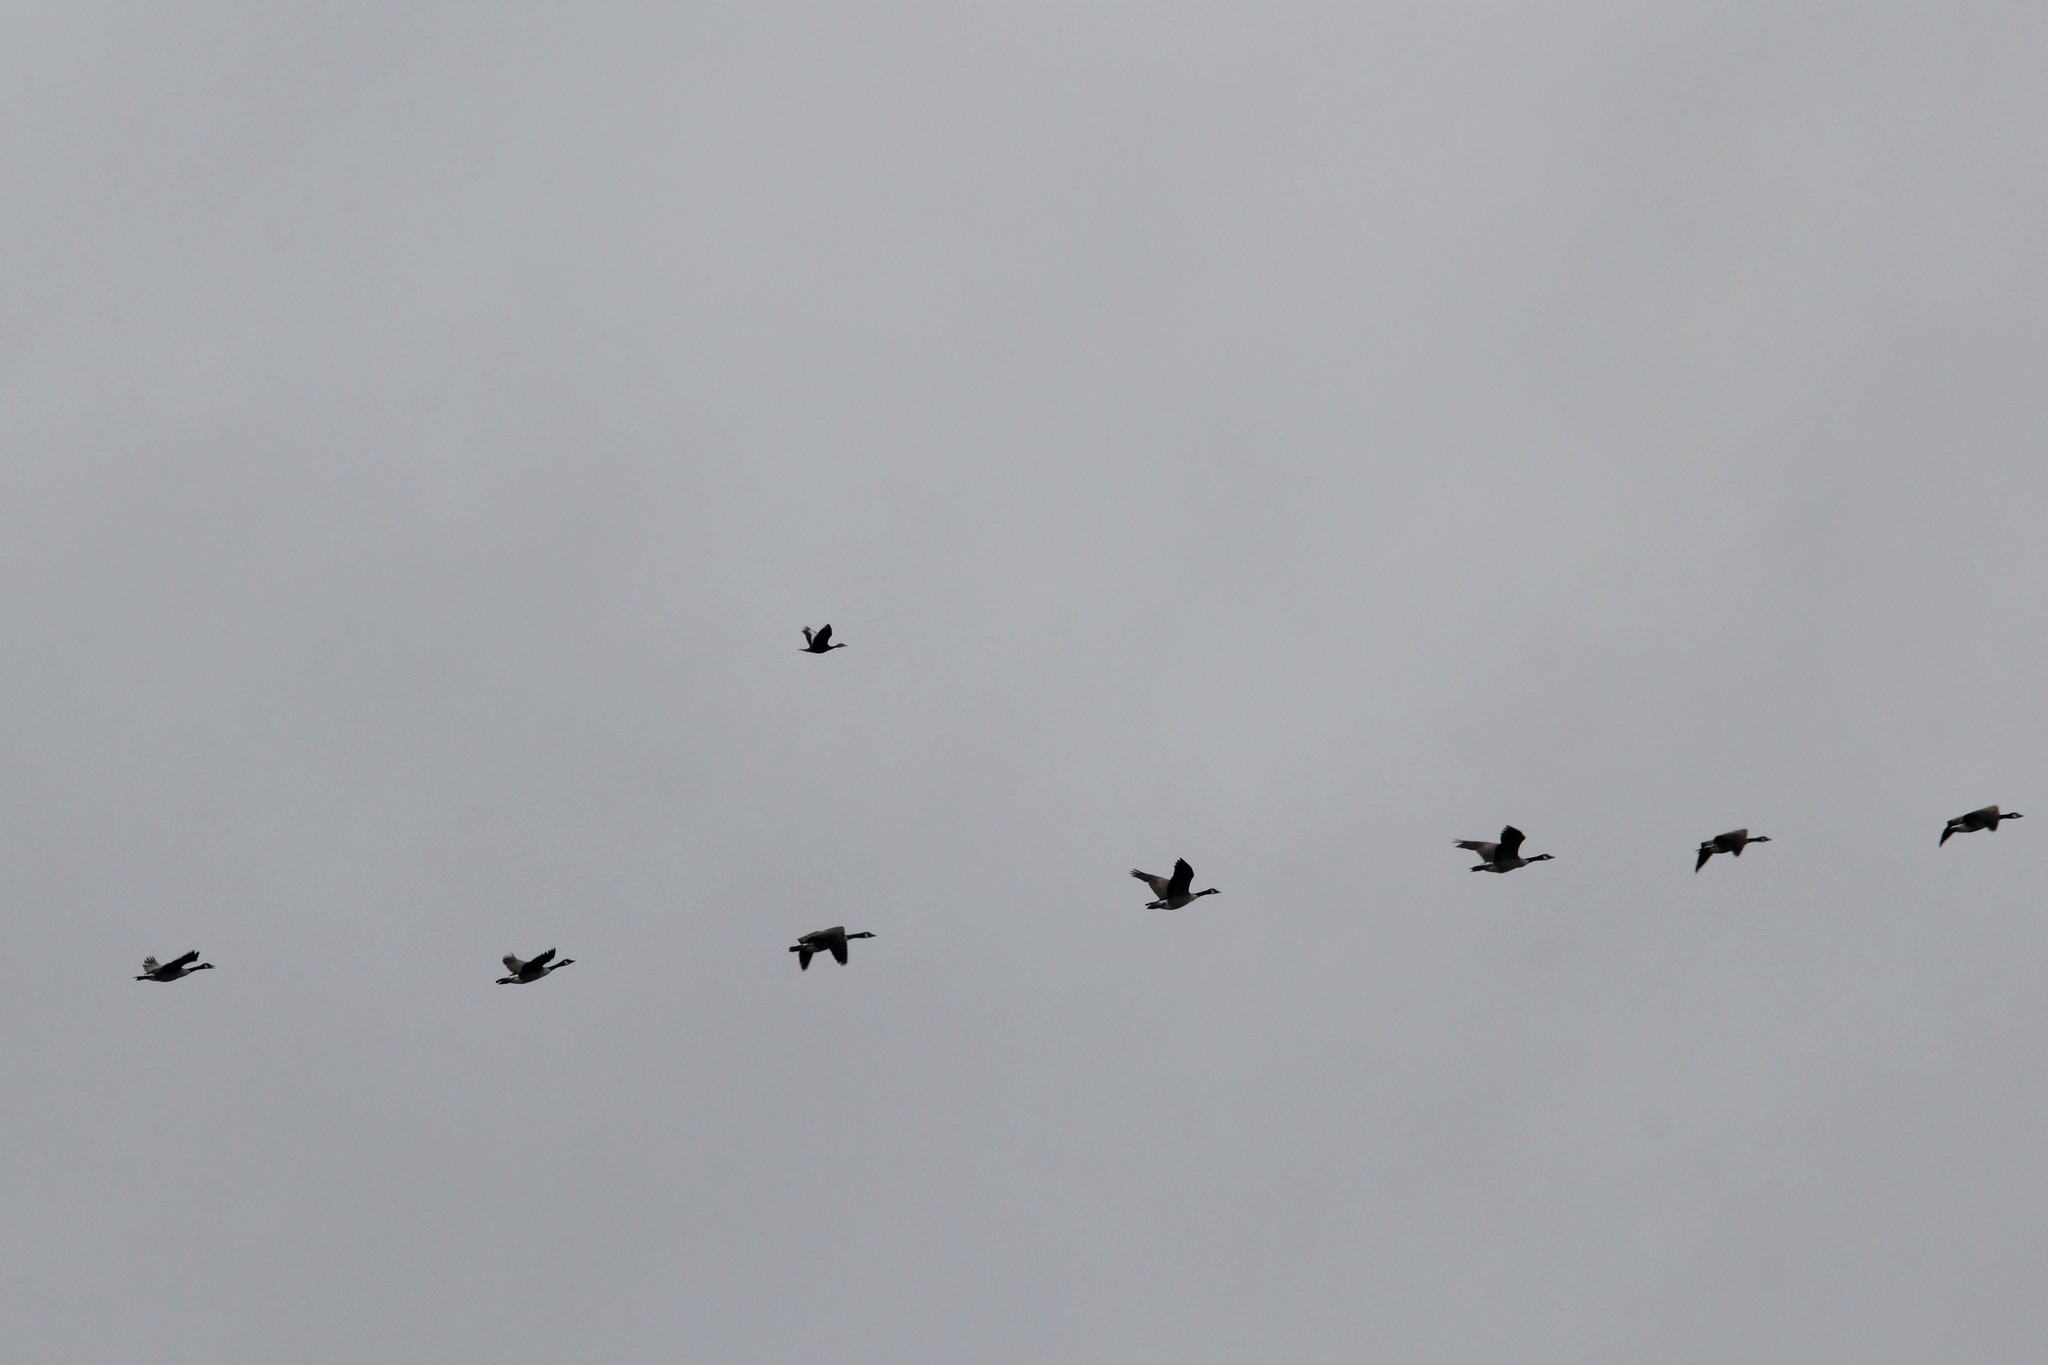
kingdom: Animalia
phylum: Chordata
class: Aves
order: Anseriformes
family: Anatidae
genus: Dendrocygna
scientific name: Dendrocygna autumnalis
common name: Black-bellied whistling duck
